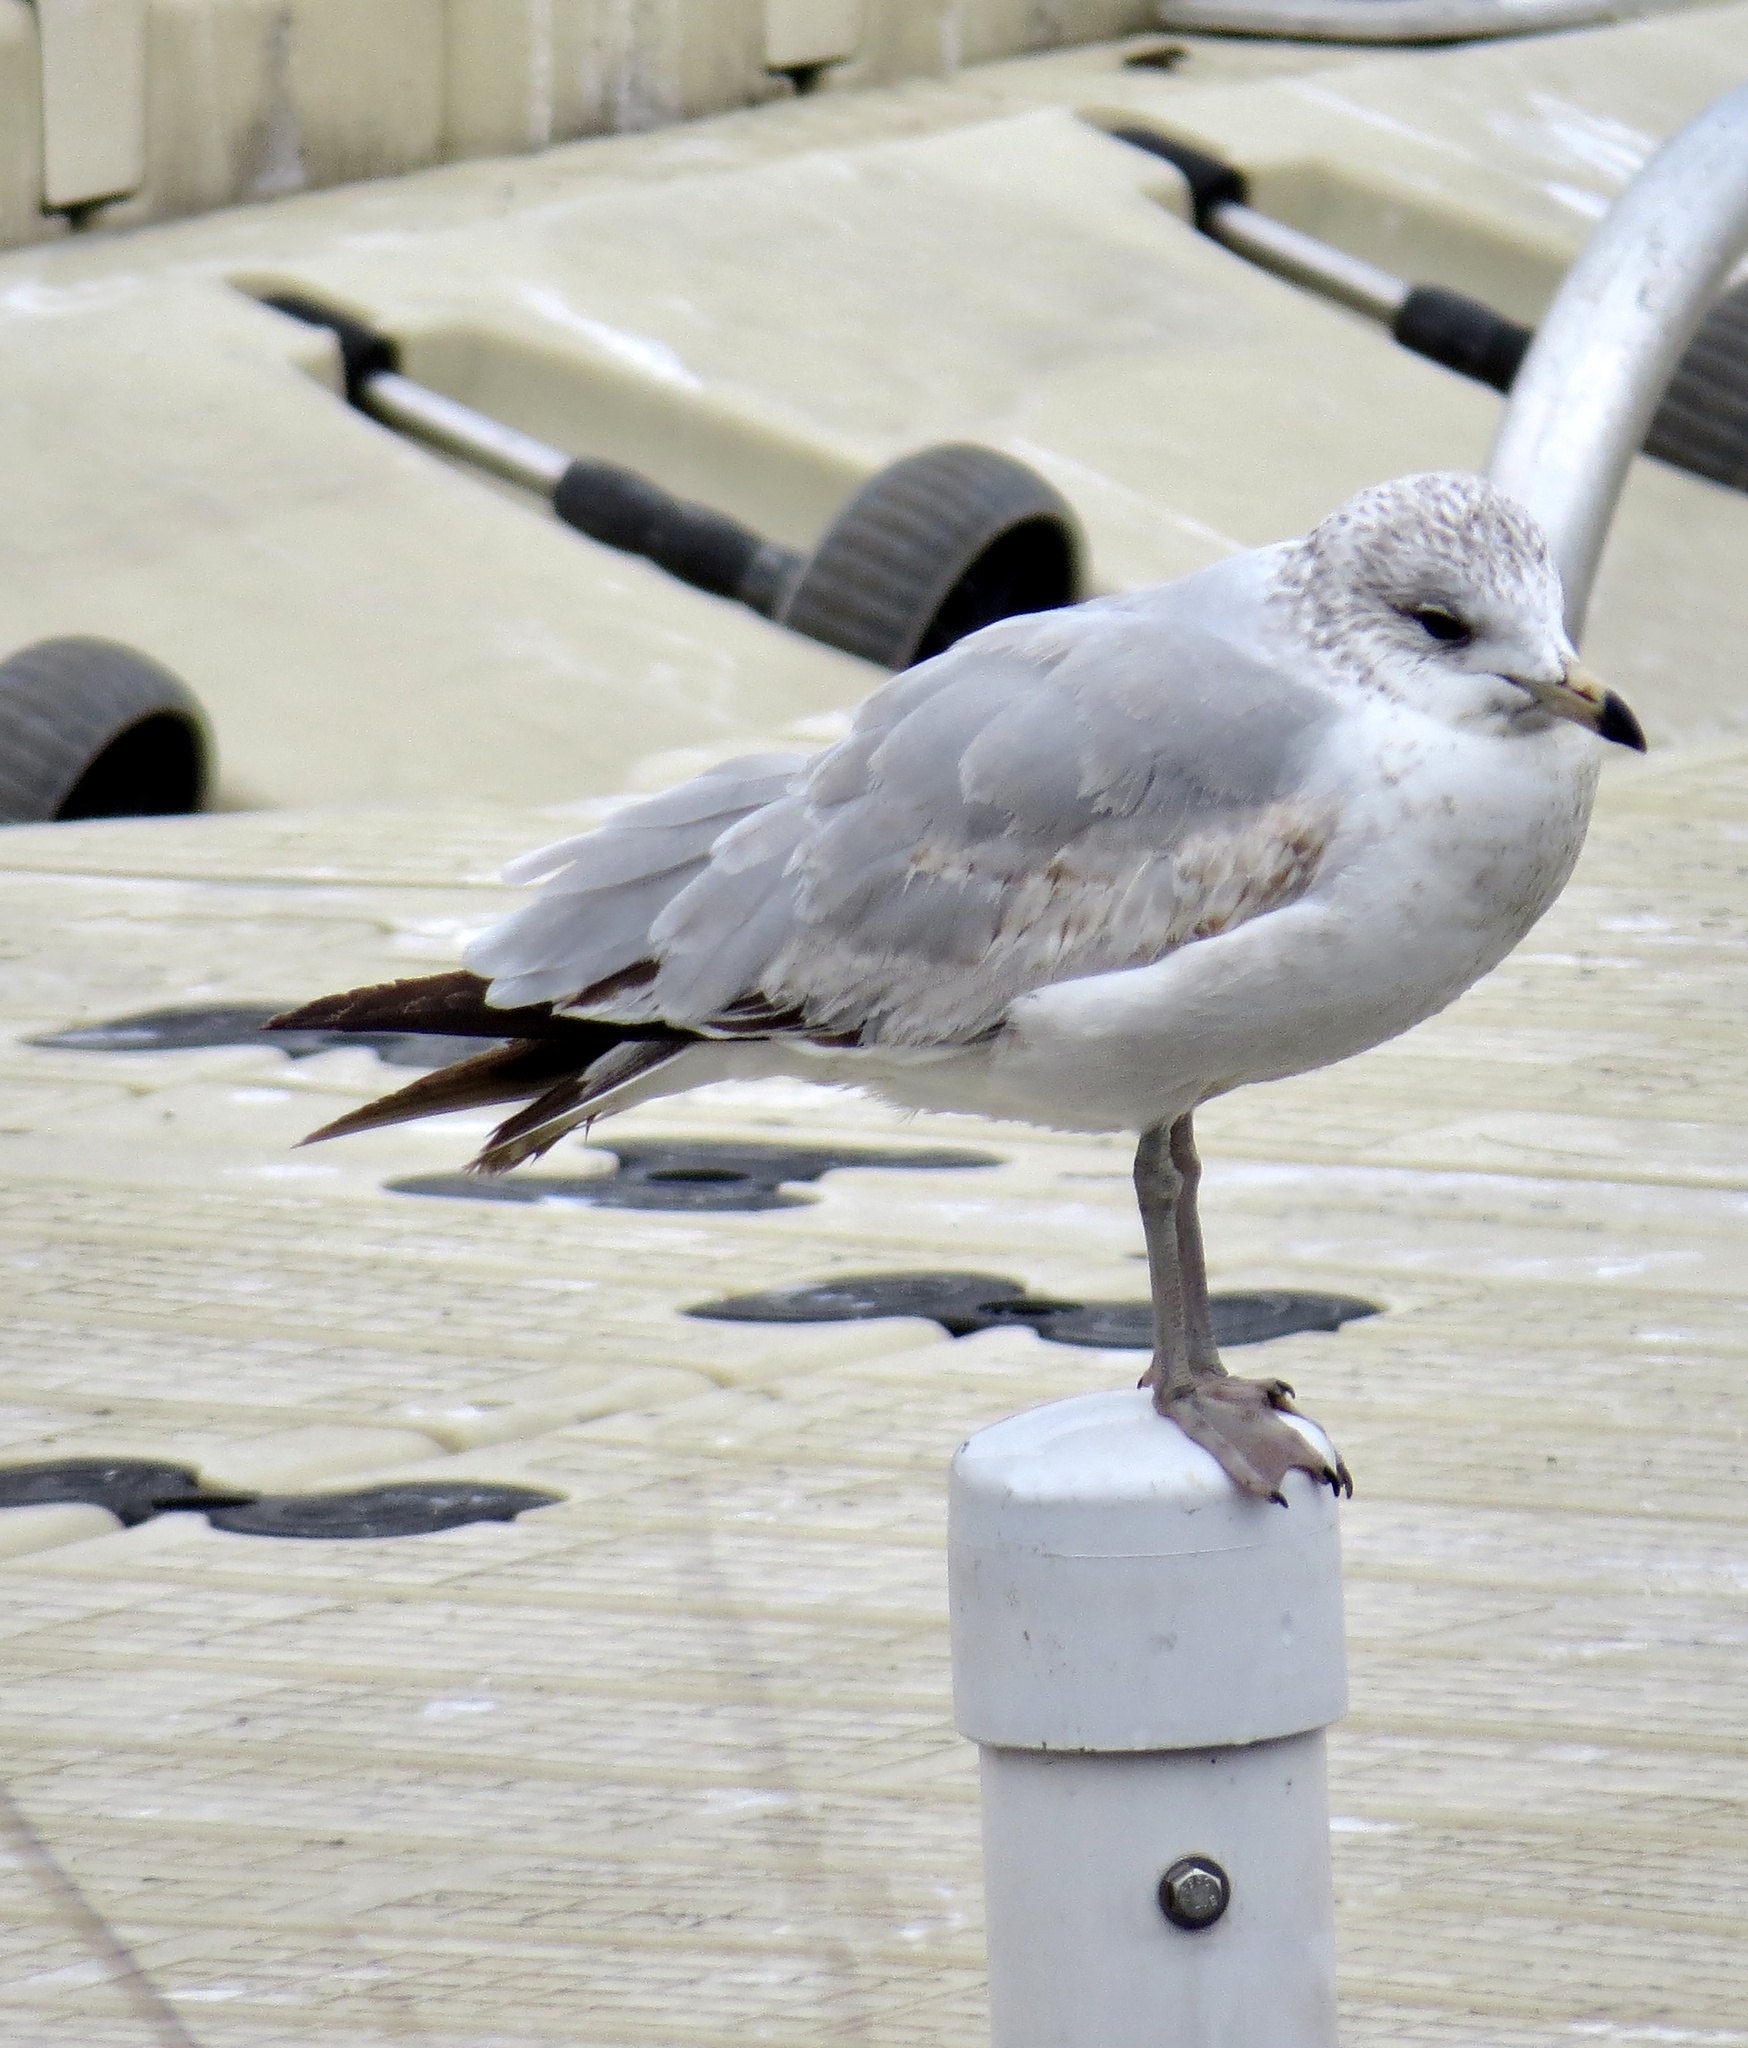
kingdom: Animalia
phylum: Chordata
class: Aves
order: Charadriiformes
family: Laridae
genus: Larus
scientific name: Larus delawarensis
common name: Ring-billed gull
